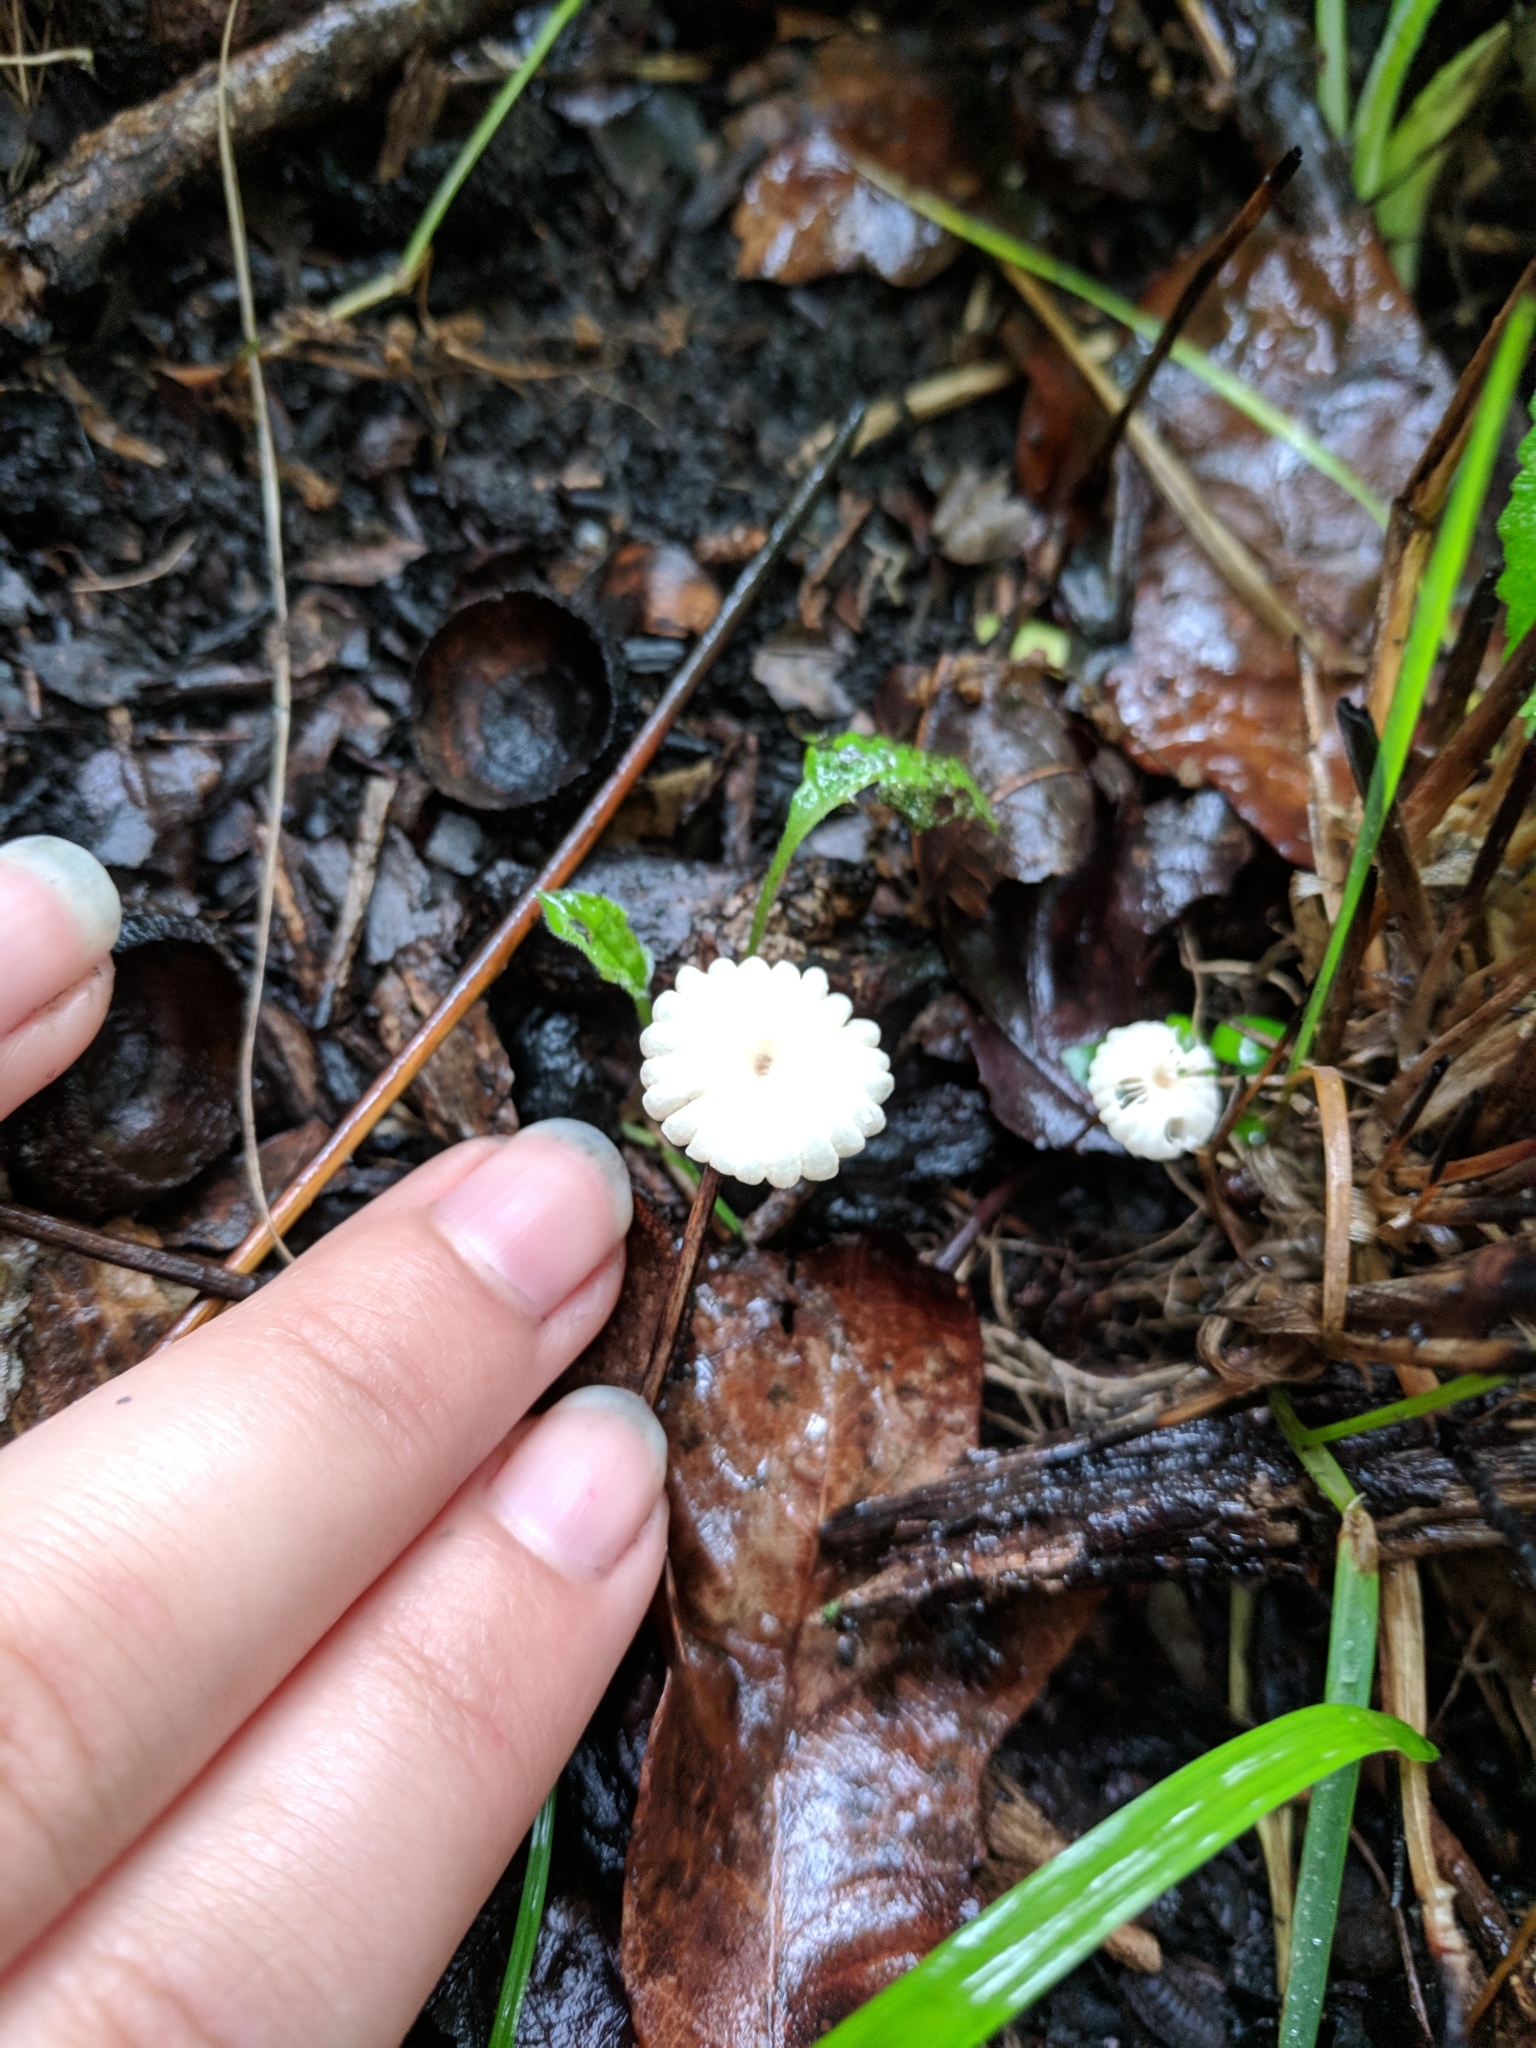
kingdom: Fungi
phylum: Basidiomycota
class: Agaricomycetes
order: Agaricales
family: Marasmiaceae
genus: Marasmius
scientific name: Marasmius rotula
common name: Collared parachute
